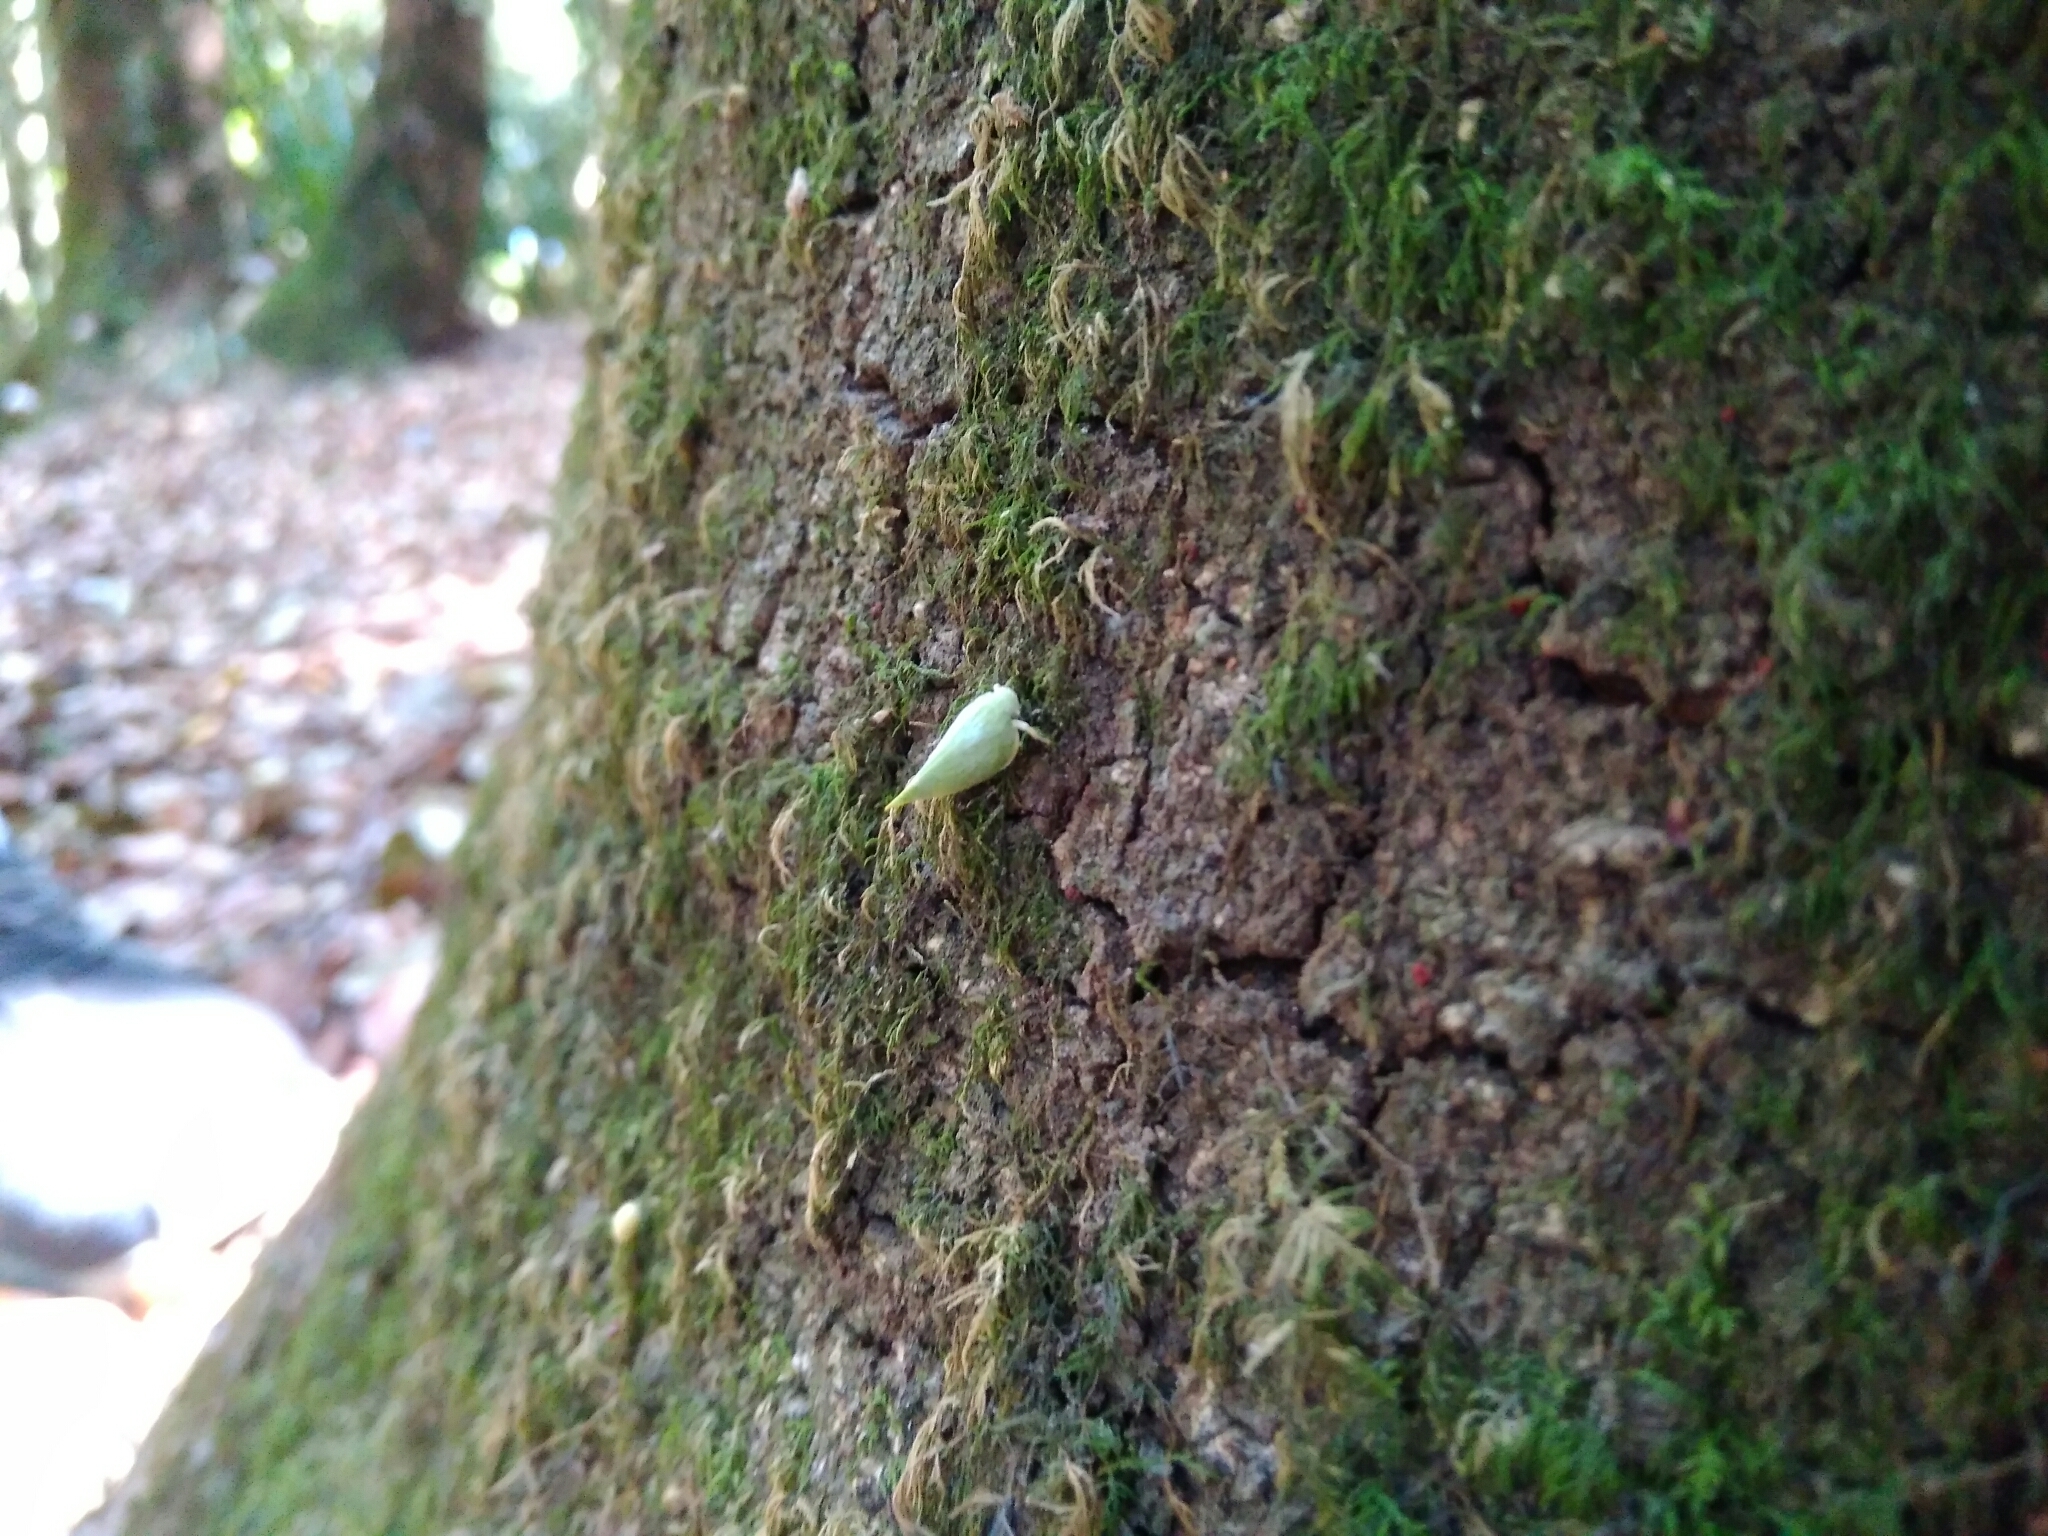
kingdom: Animalia
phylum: Arthropoda
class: Insecta
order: Hemiptera
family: Flatidae
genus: Arelate
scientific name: Arelate limbellata
